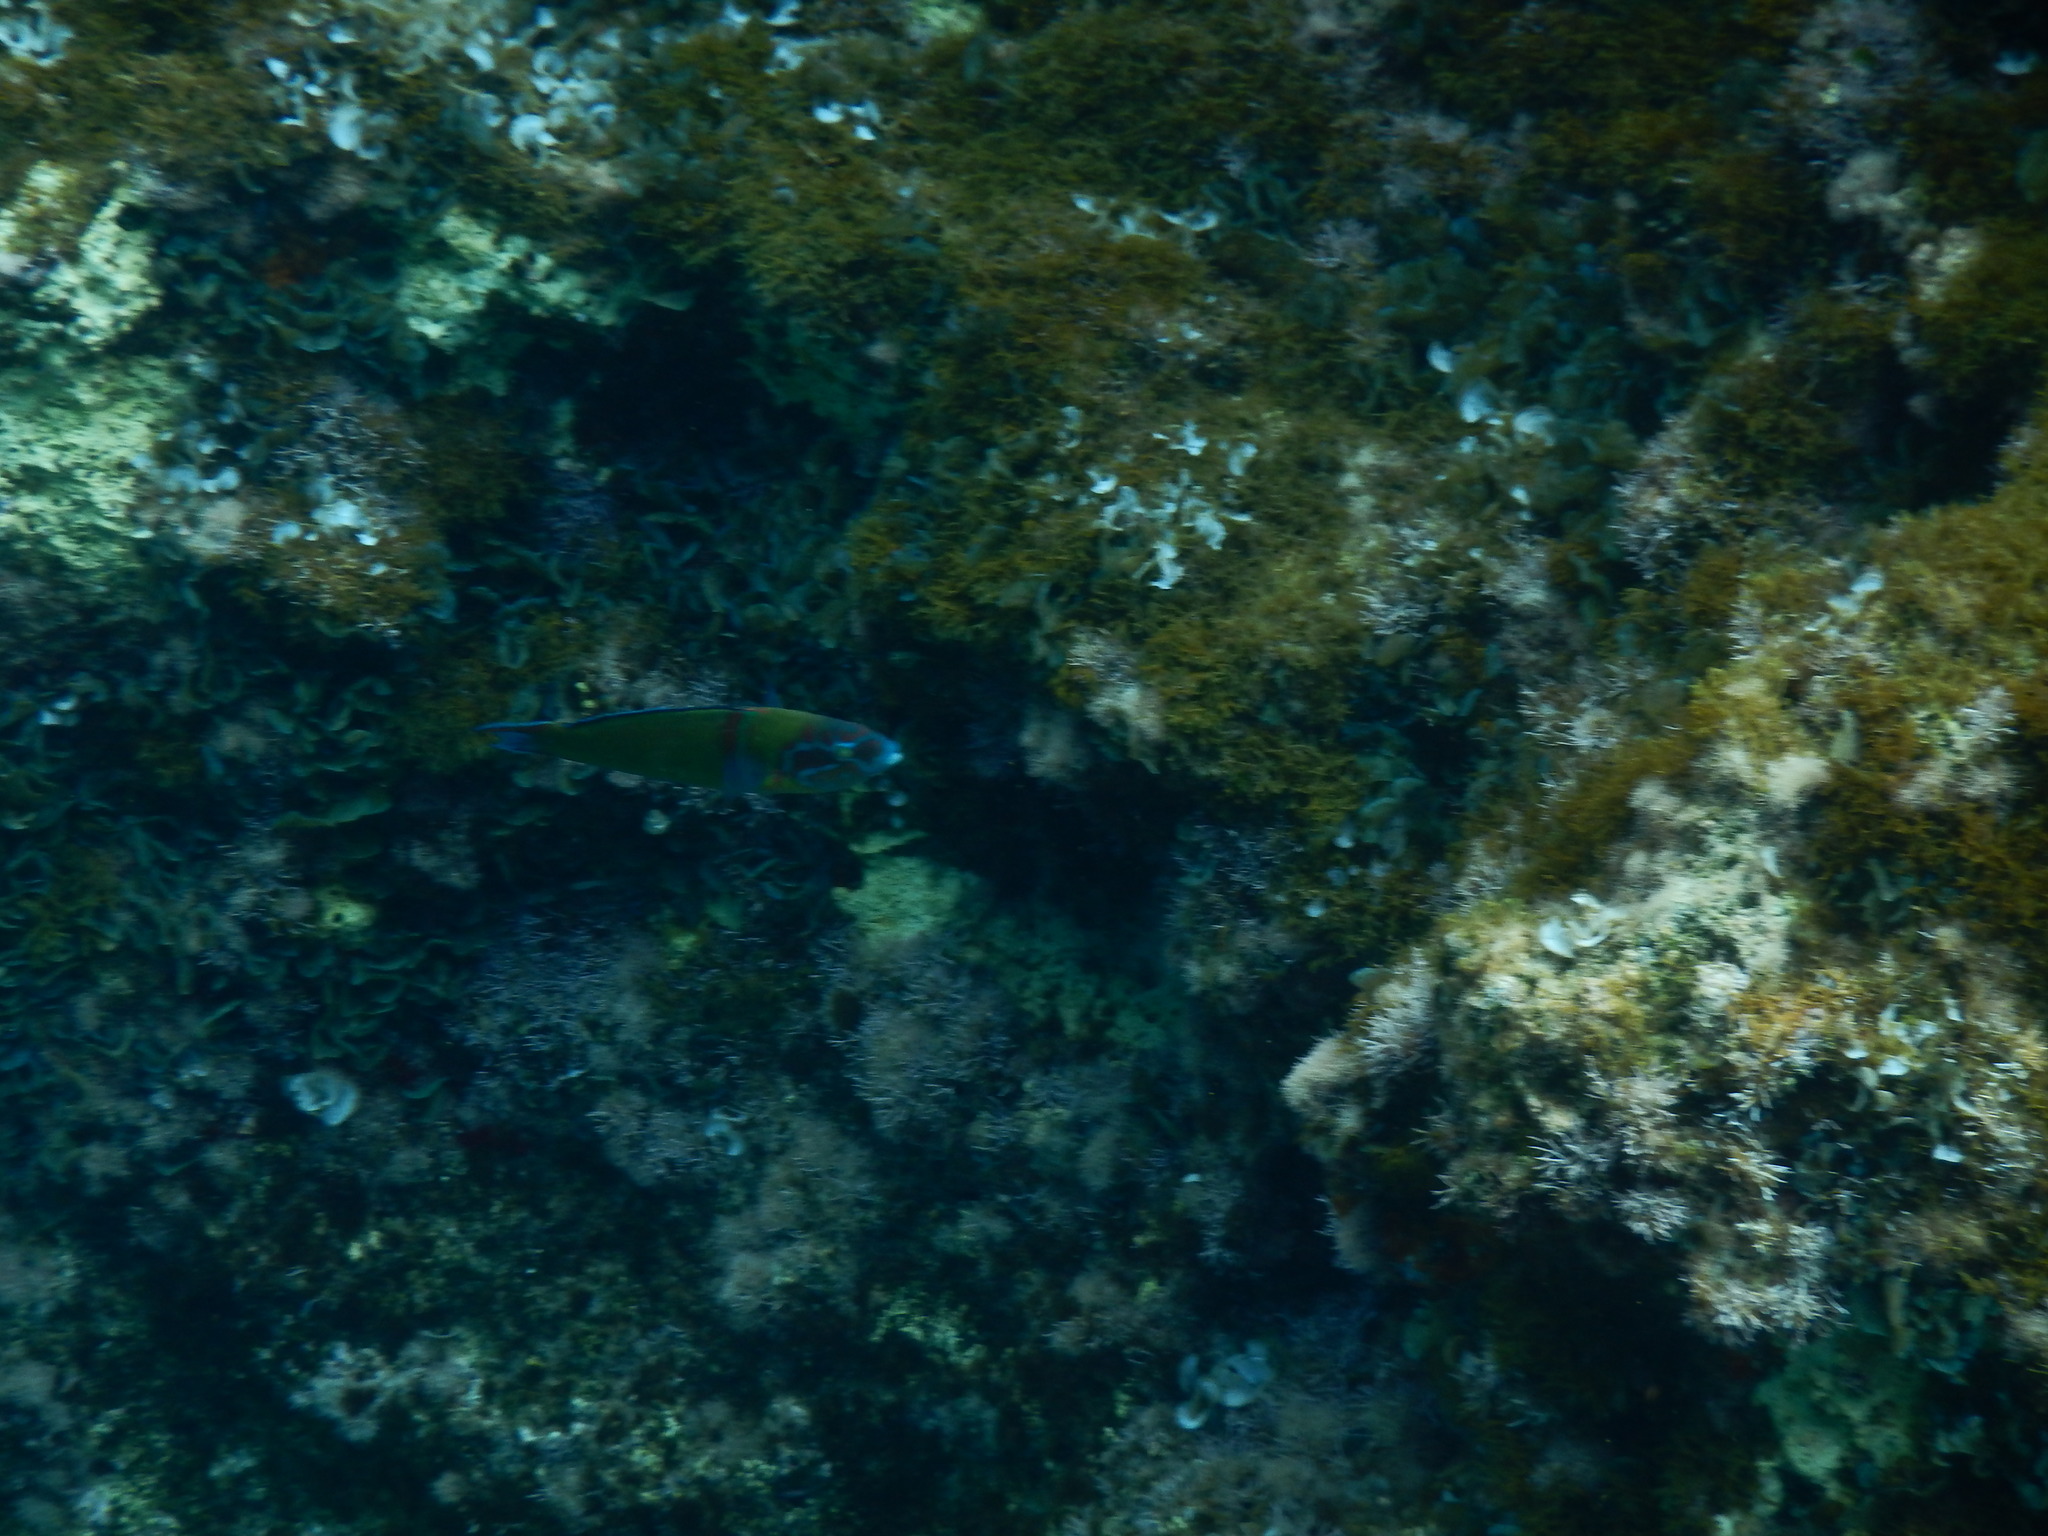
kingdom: Animalia
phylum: Chordata
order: Perciformes
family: Labridae
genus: Thalassoma
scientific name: Thalassoma pavo
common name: Ornate wrasse
